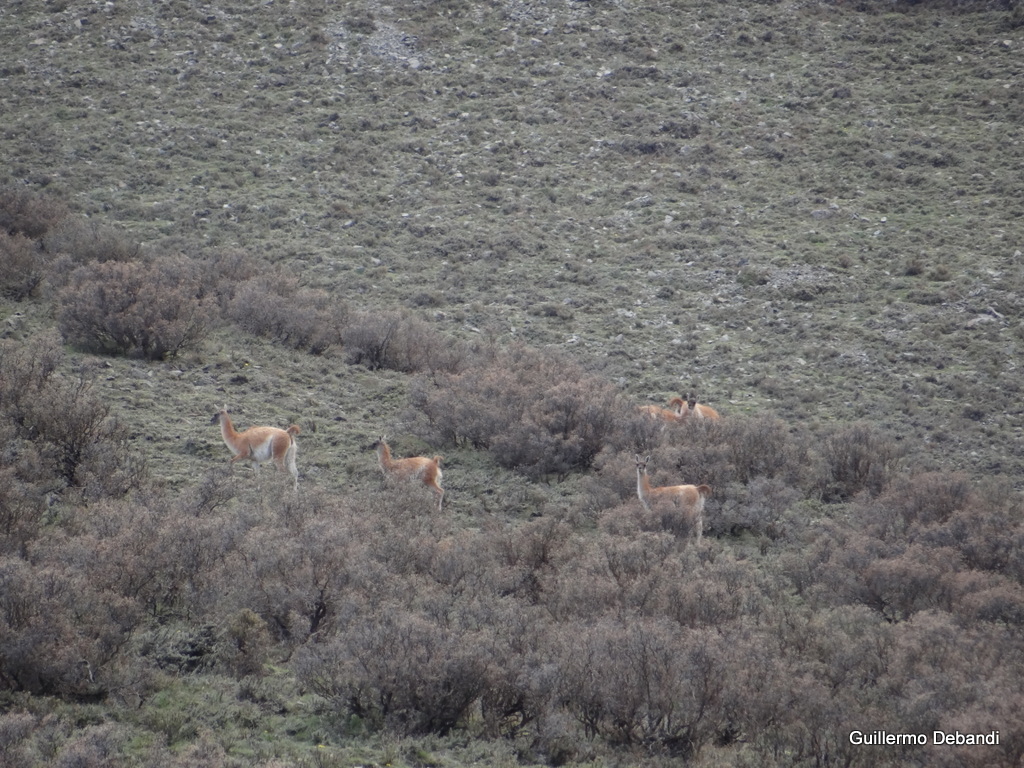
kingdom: Animalia
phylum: Chordata
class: Mammalia
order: Artiodactyla
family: Camelidae
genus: Lama
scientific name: Lama glama
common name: Llama
